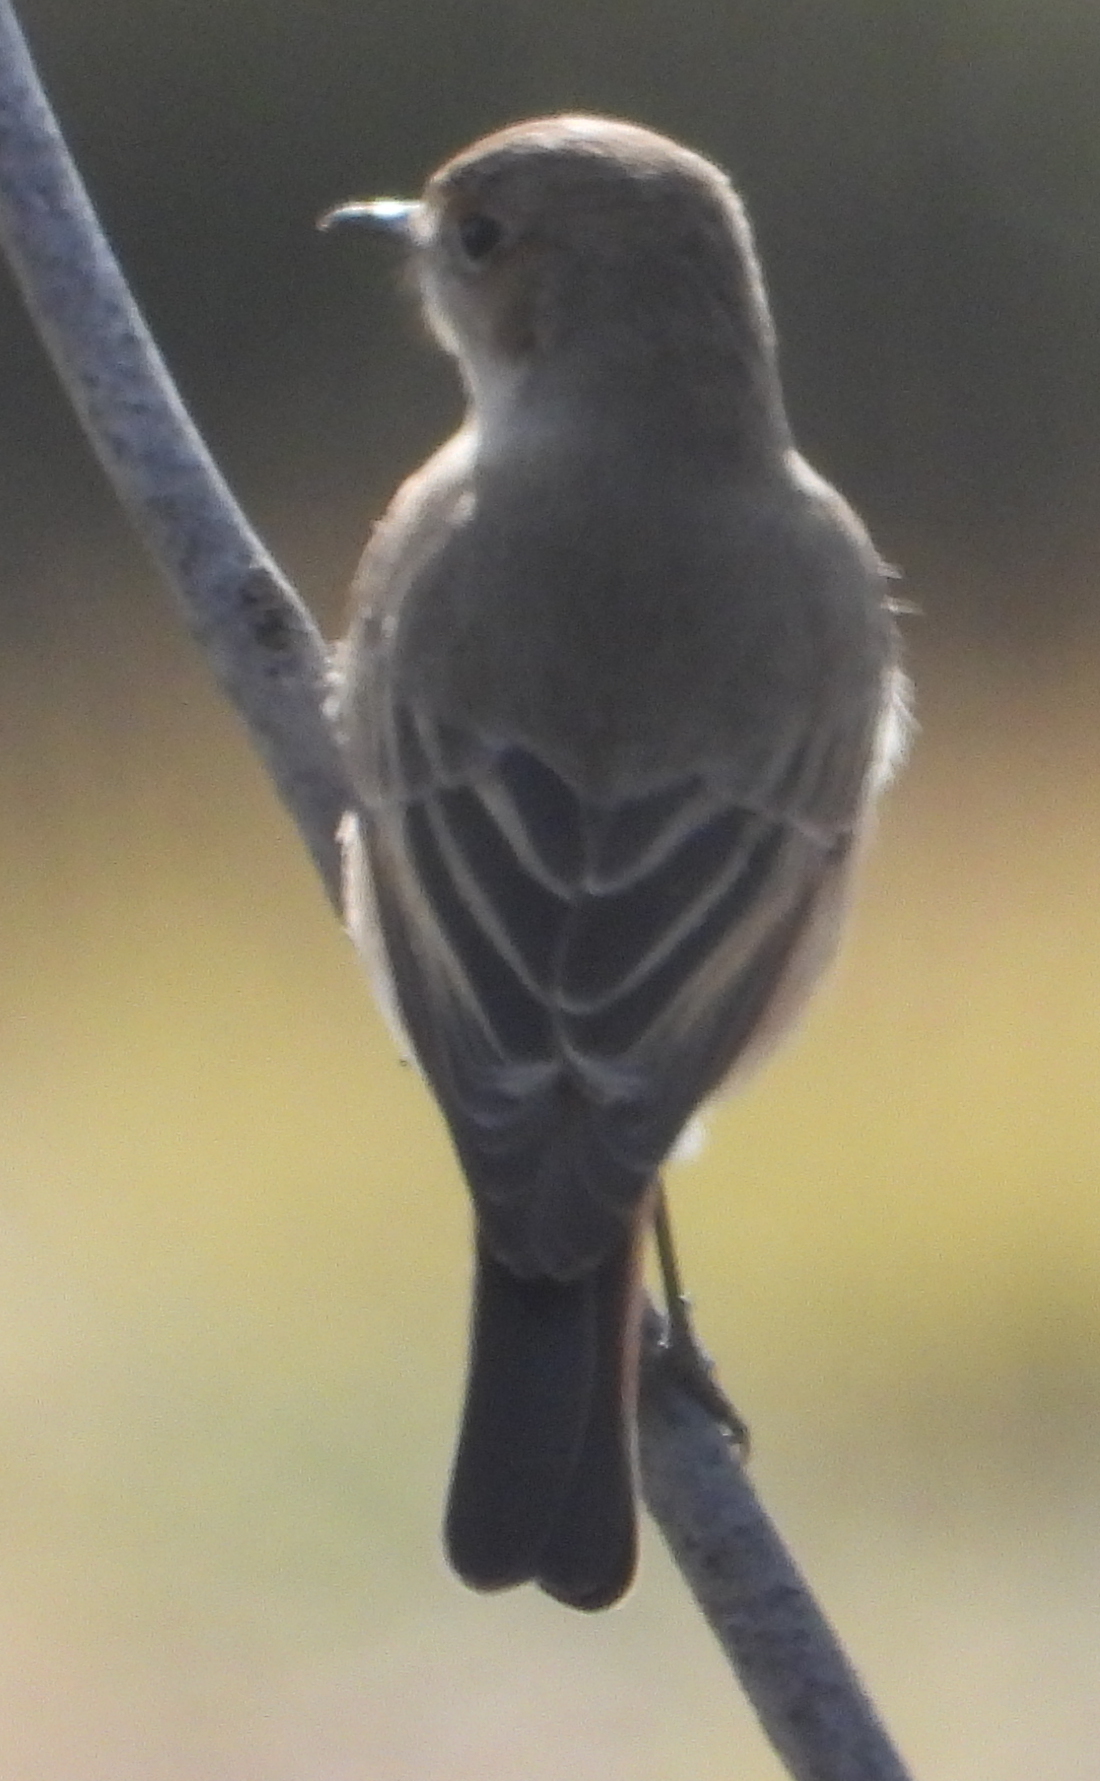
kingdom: Animalia
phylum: Chordata
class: Aves
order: Passeriformes
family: Muscicapidae
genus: Oenanthe
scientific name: Oenanthe familiaris
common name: Familiar chat
